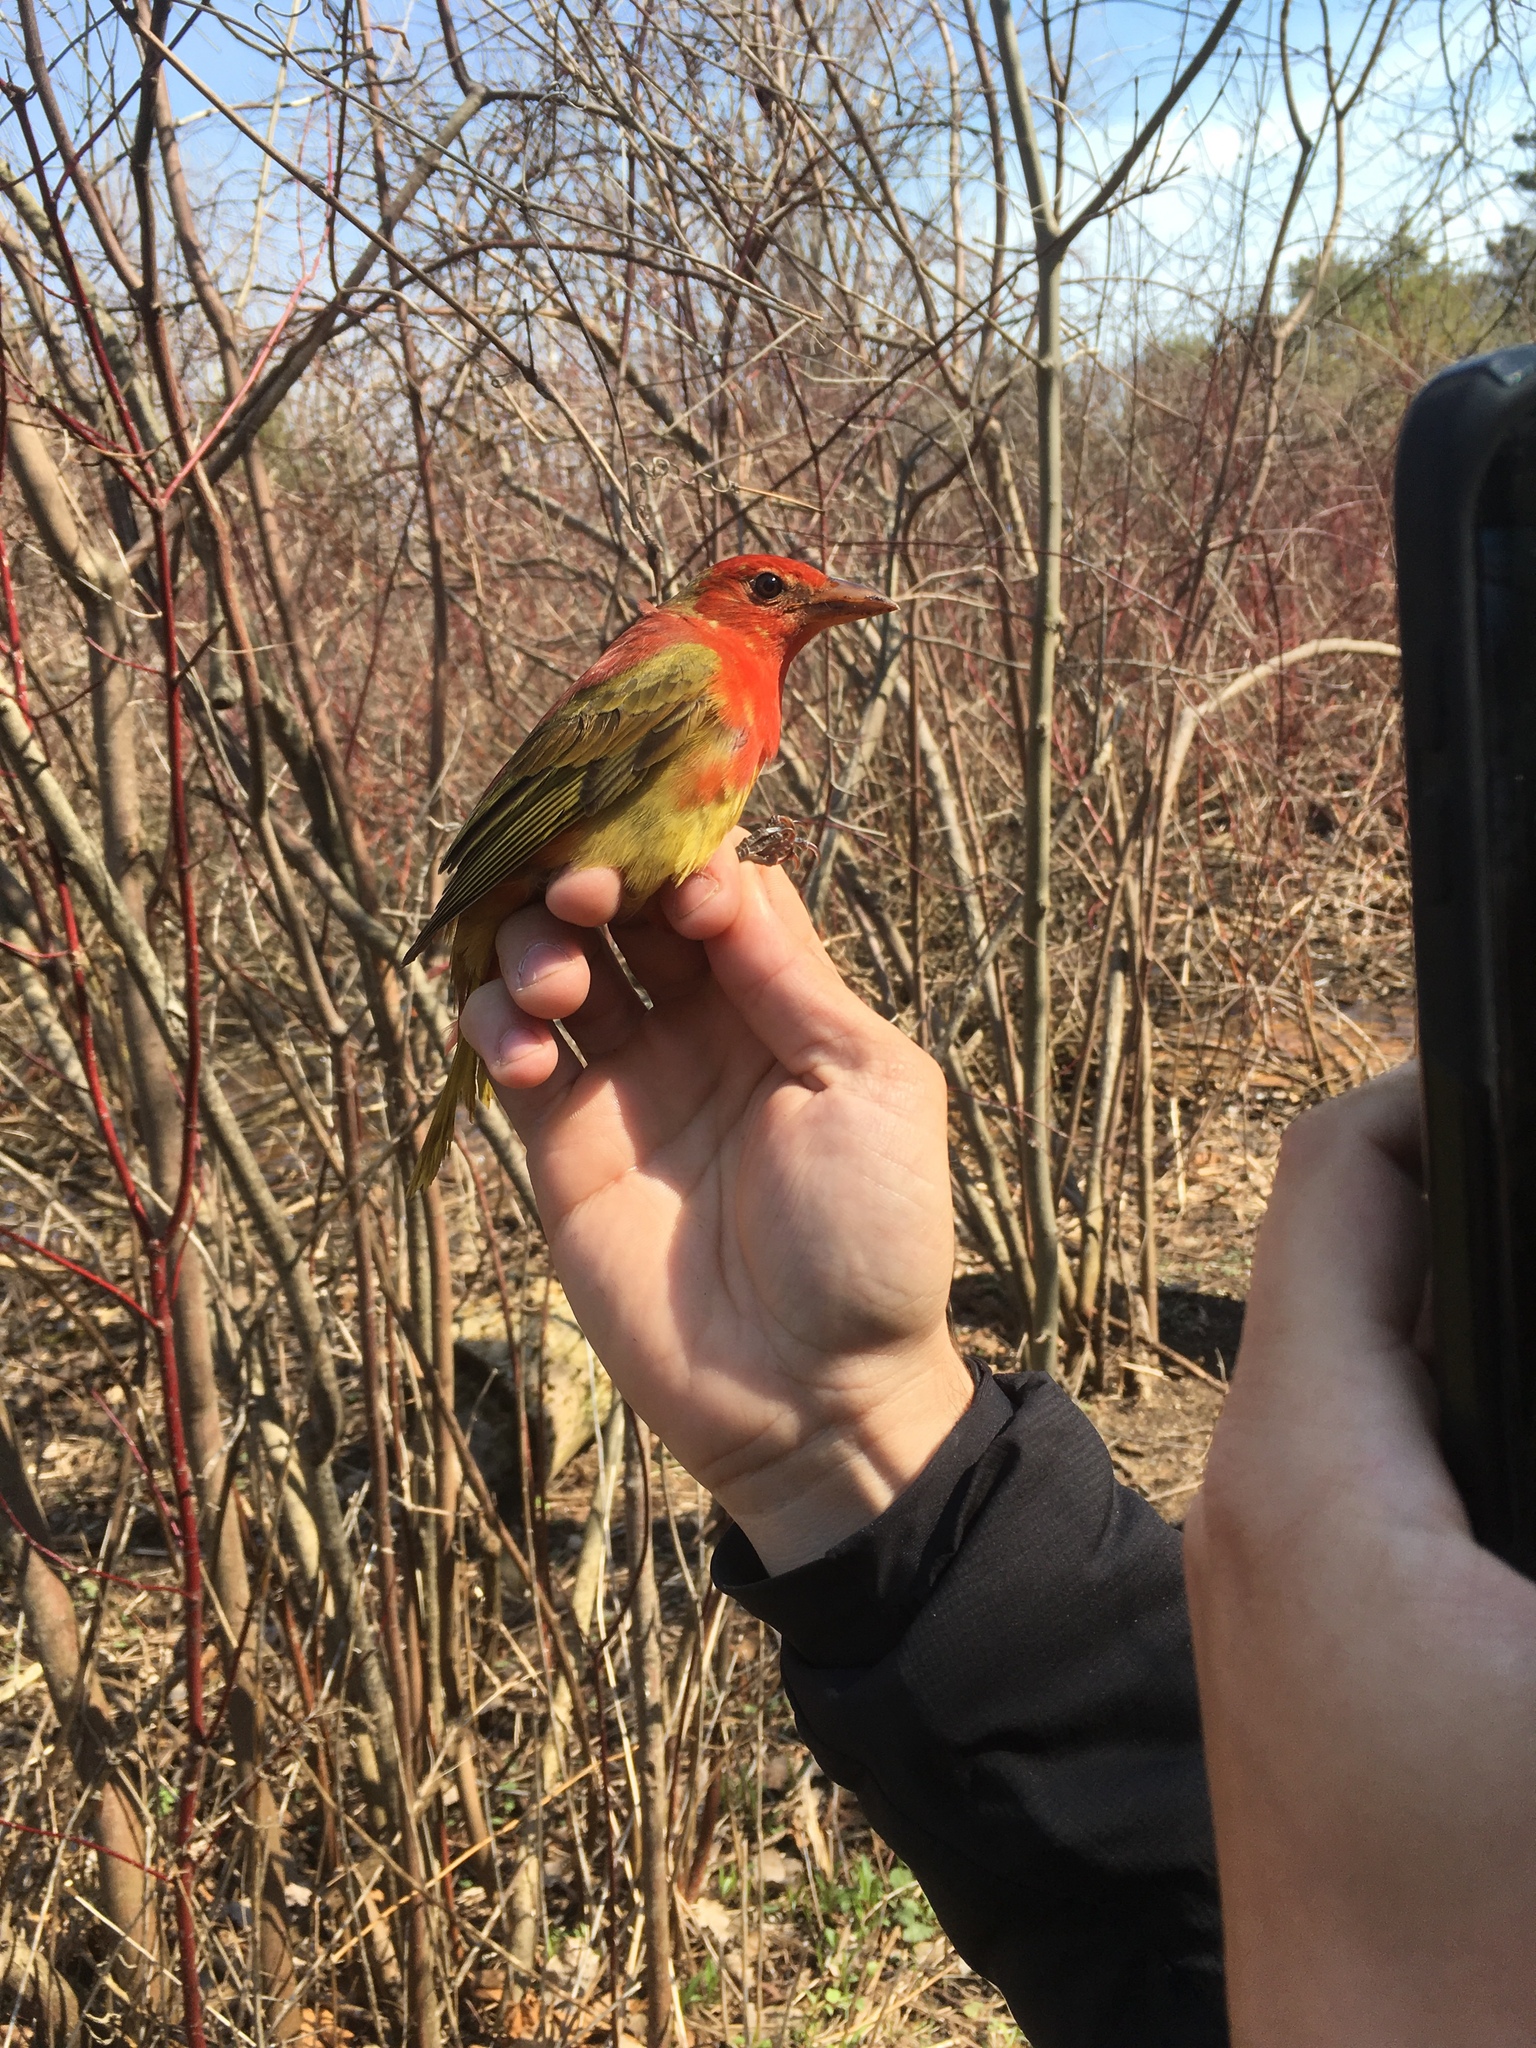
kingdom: Animalia
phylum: Chordata
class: Aves
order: Passeriformes
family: Cardinalidae
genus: Piranga
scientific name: Piranga rubra
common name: Summer tanager
